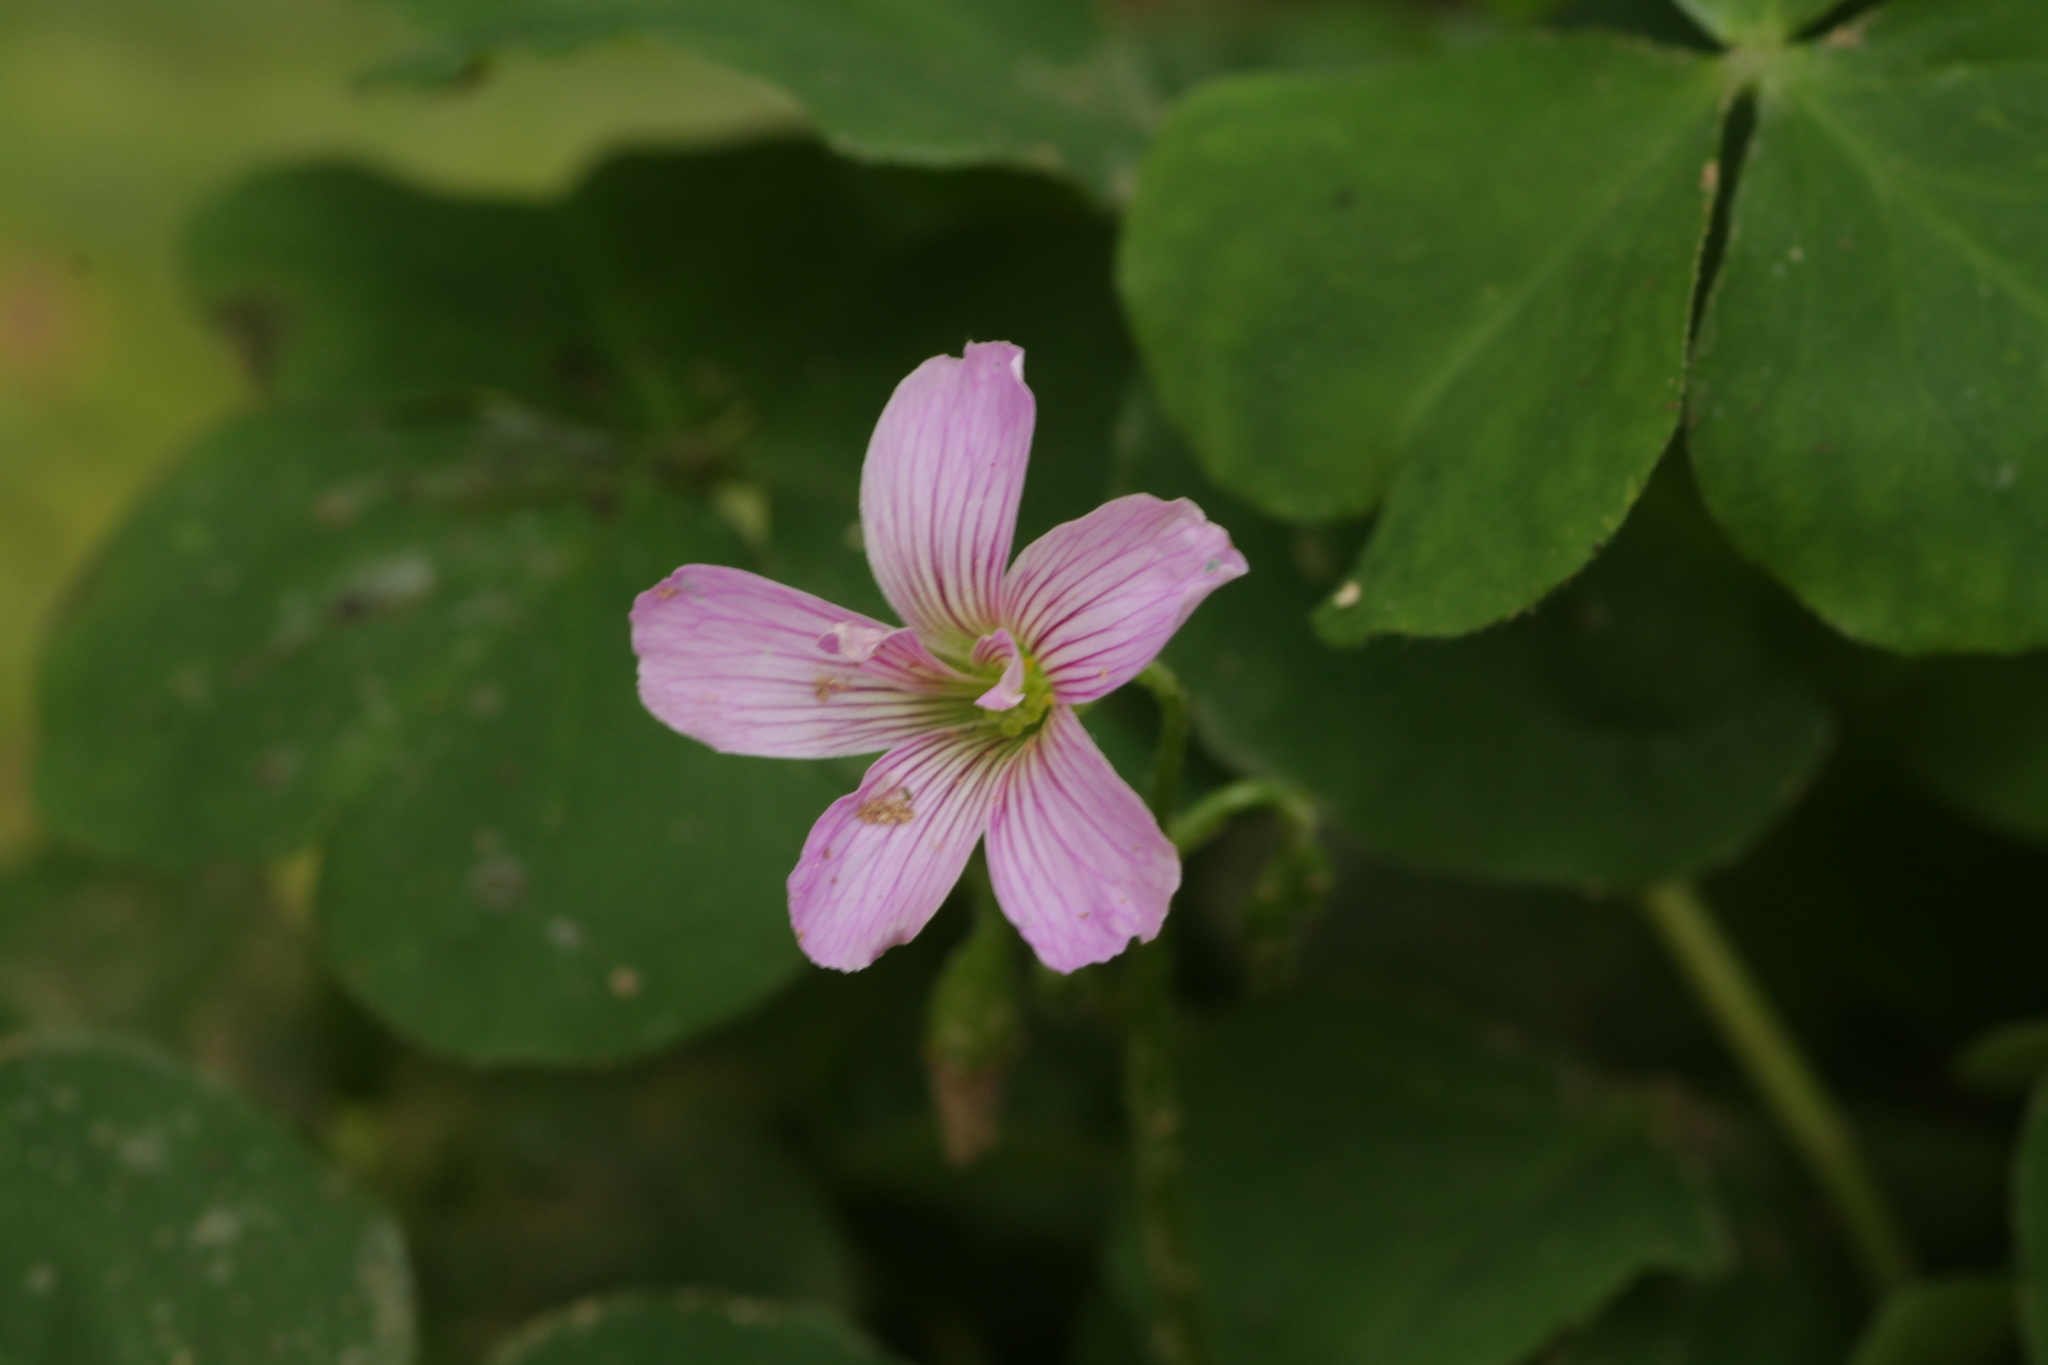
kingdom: Plantae
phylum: Tracheophyta
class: Magnoliopsida
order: Oxalidales
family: Oxalidaceae
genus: Oxalis
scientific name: Oxalis debilis
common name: Large-flowered pink-sorrel
